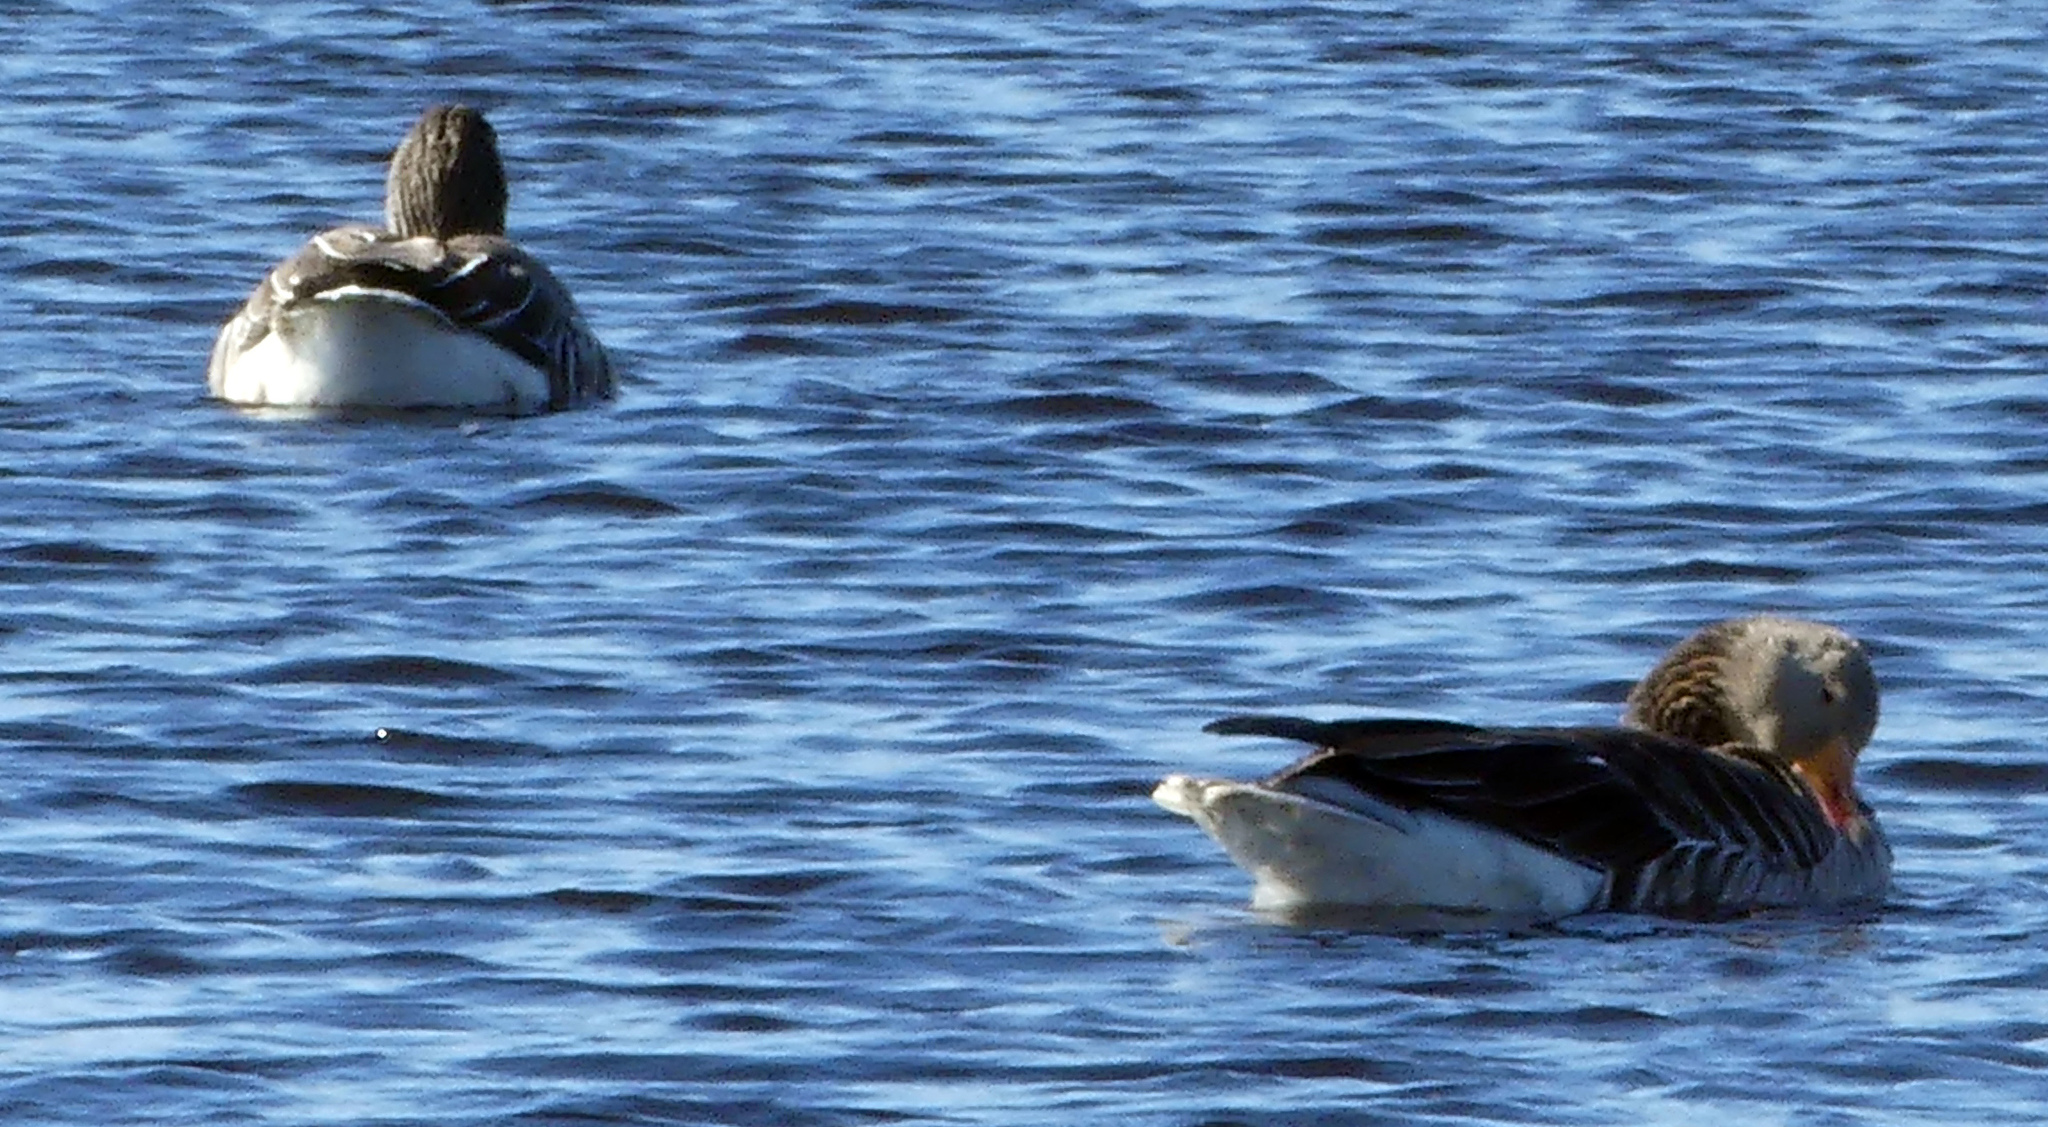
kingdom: Animalia
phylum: Chordata
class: Aves
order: Anseriformes
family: Anatidae
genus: Anser
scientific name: Anser anser
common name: Greylag goose
